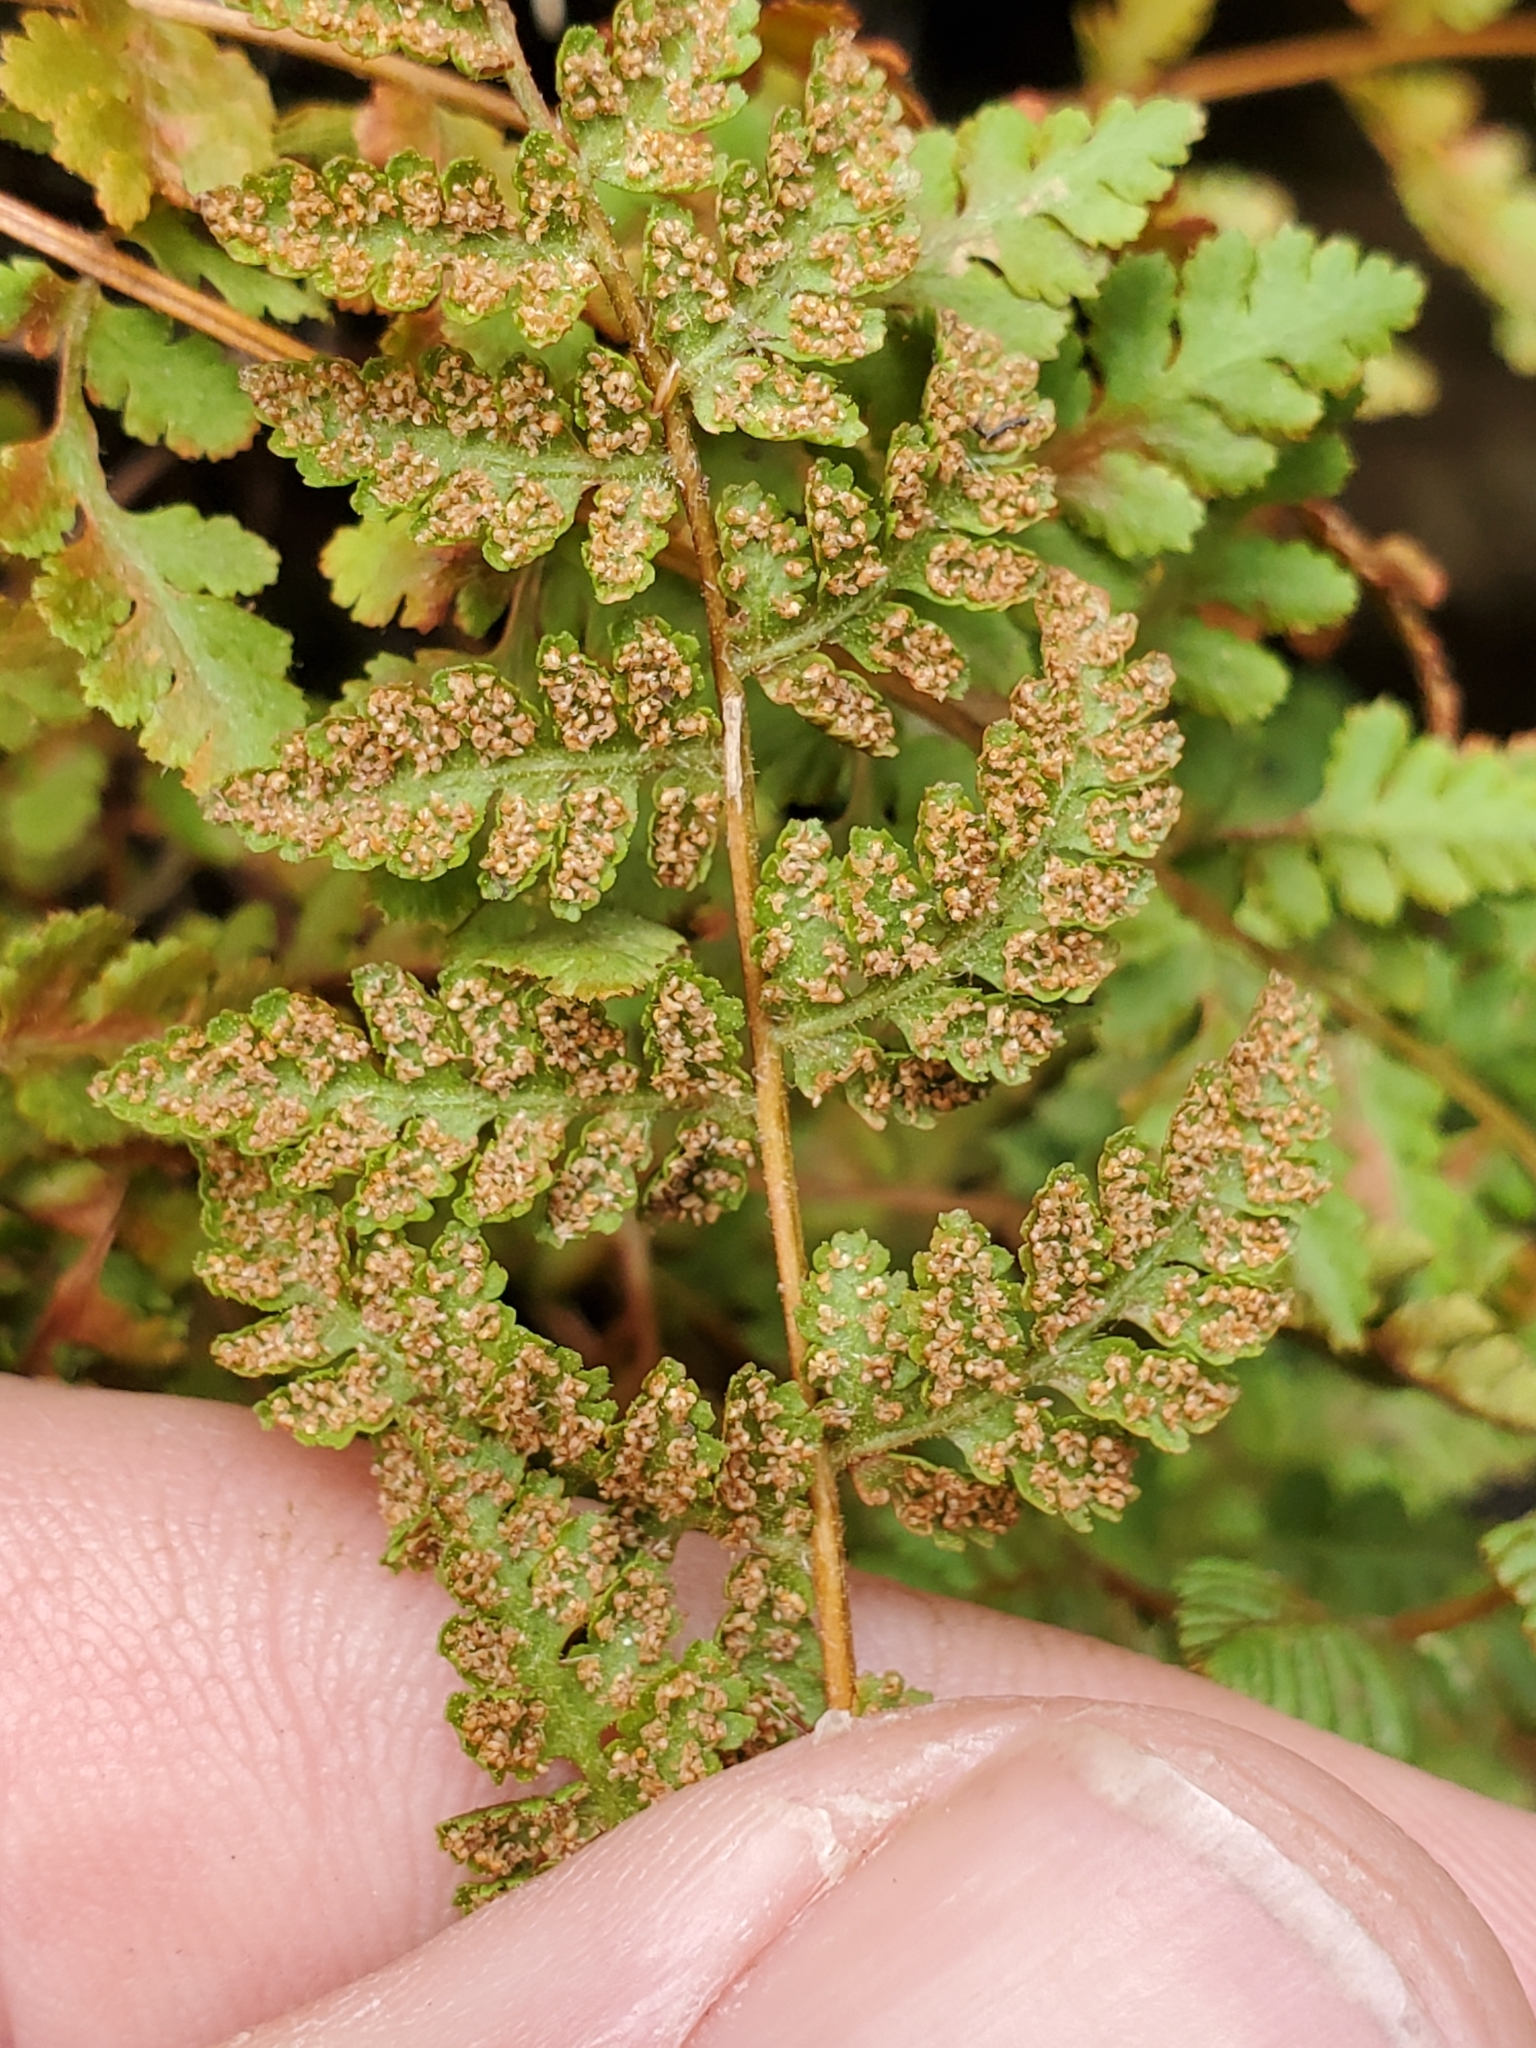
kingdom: Plantae
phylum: Tracheophyta
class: Polypodiopsida
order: Polypodiales
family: Woodsiaceae
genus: Physematium
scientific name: Physematium scopulinum
